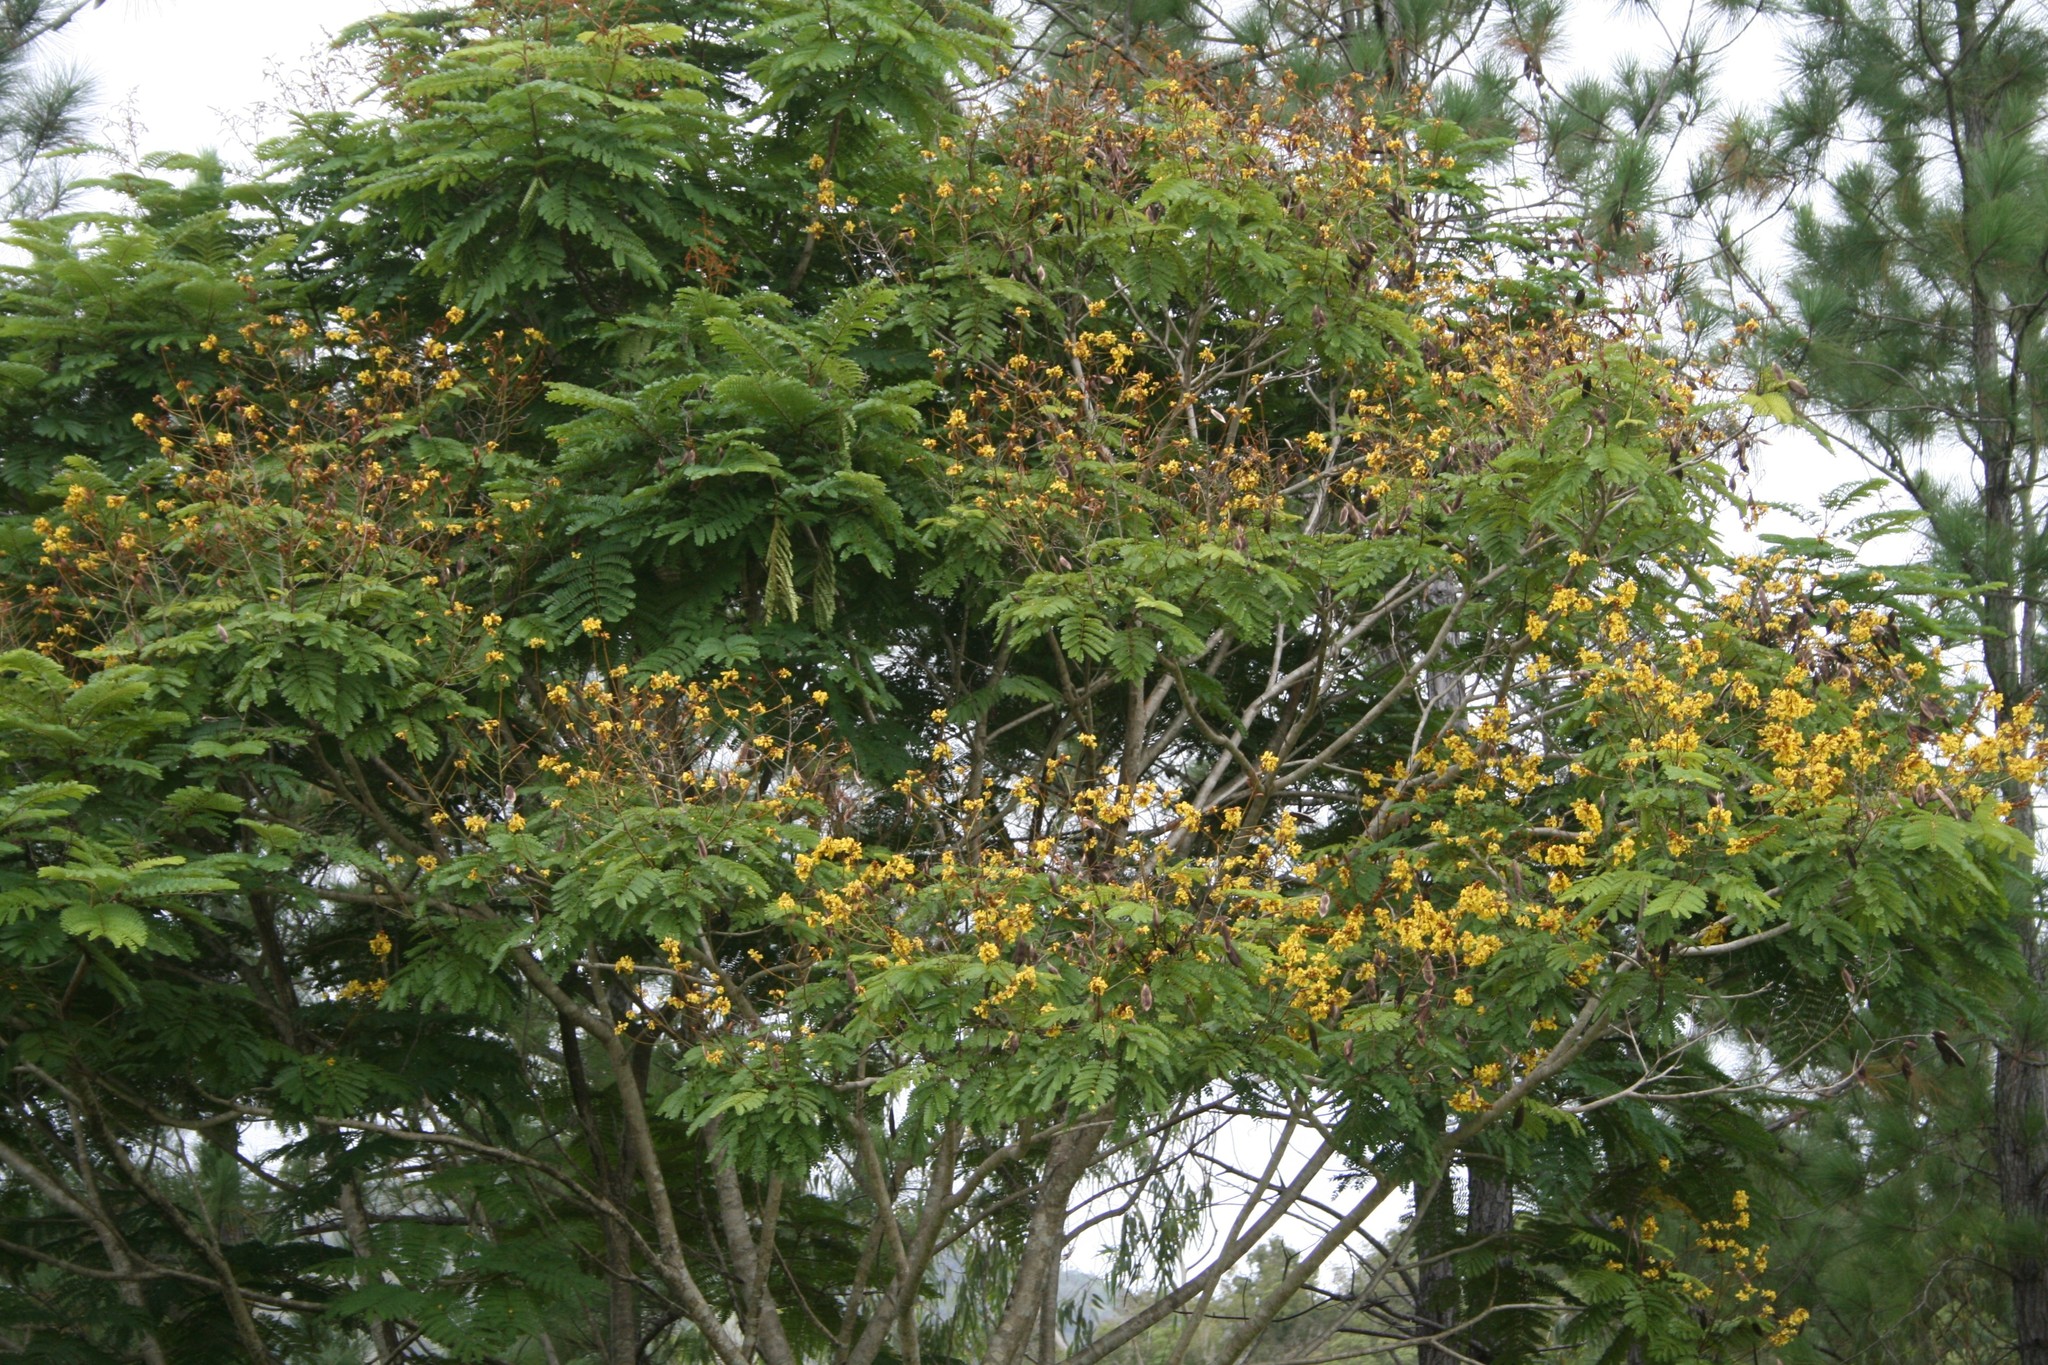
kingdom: Plantae
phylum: Tracheophyta
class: Magnoliopsida
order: Fabales
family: Fabaceae
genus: Peltophorum
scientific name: Peltophorum pterocarpum
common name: Yellow flame
